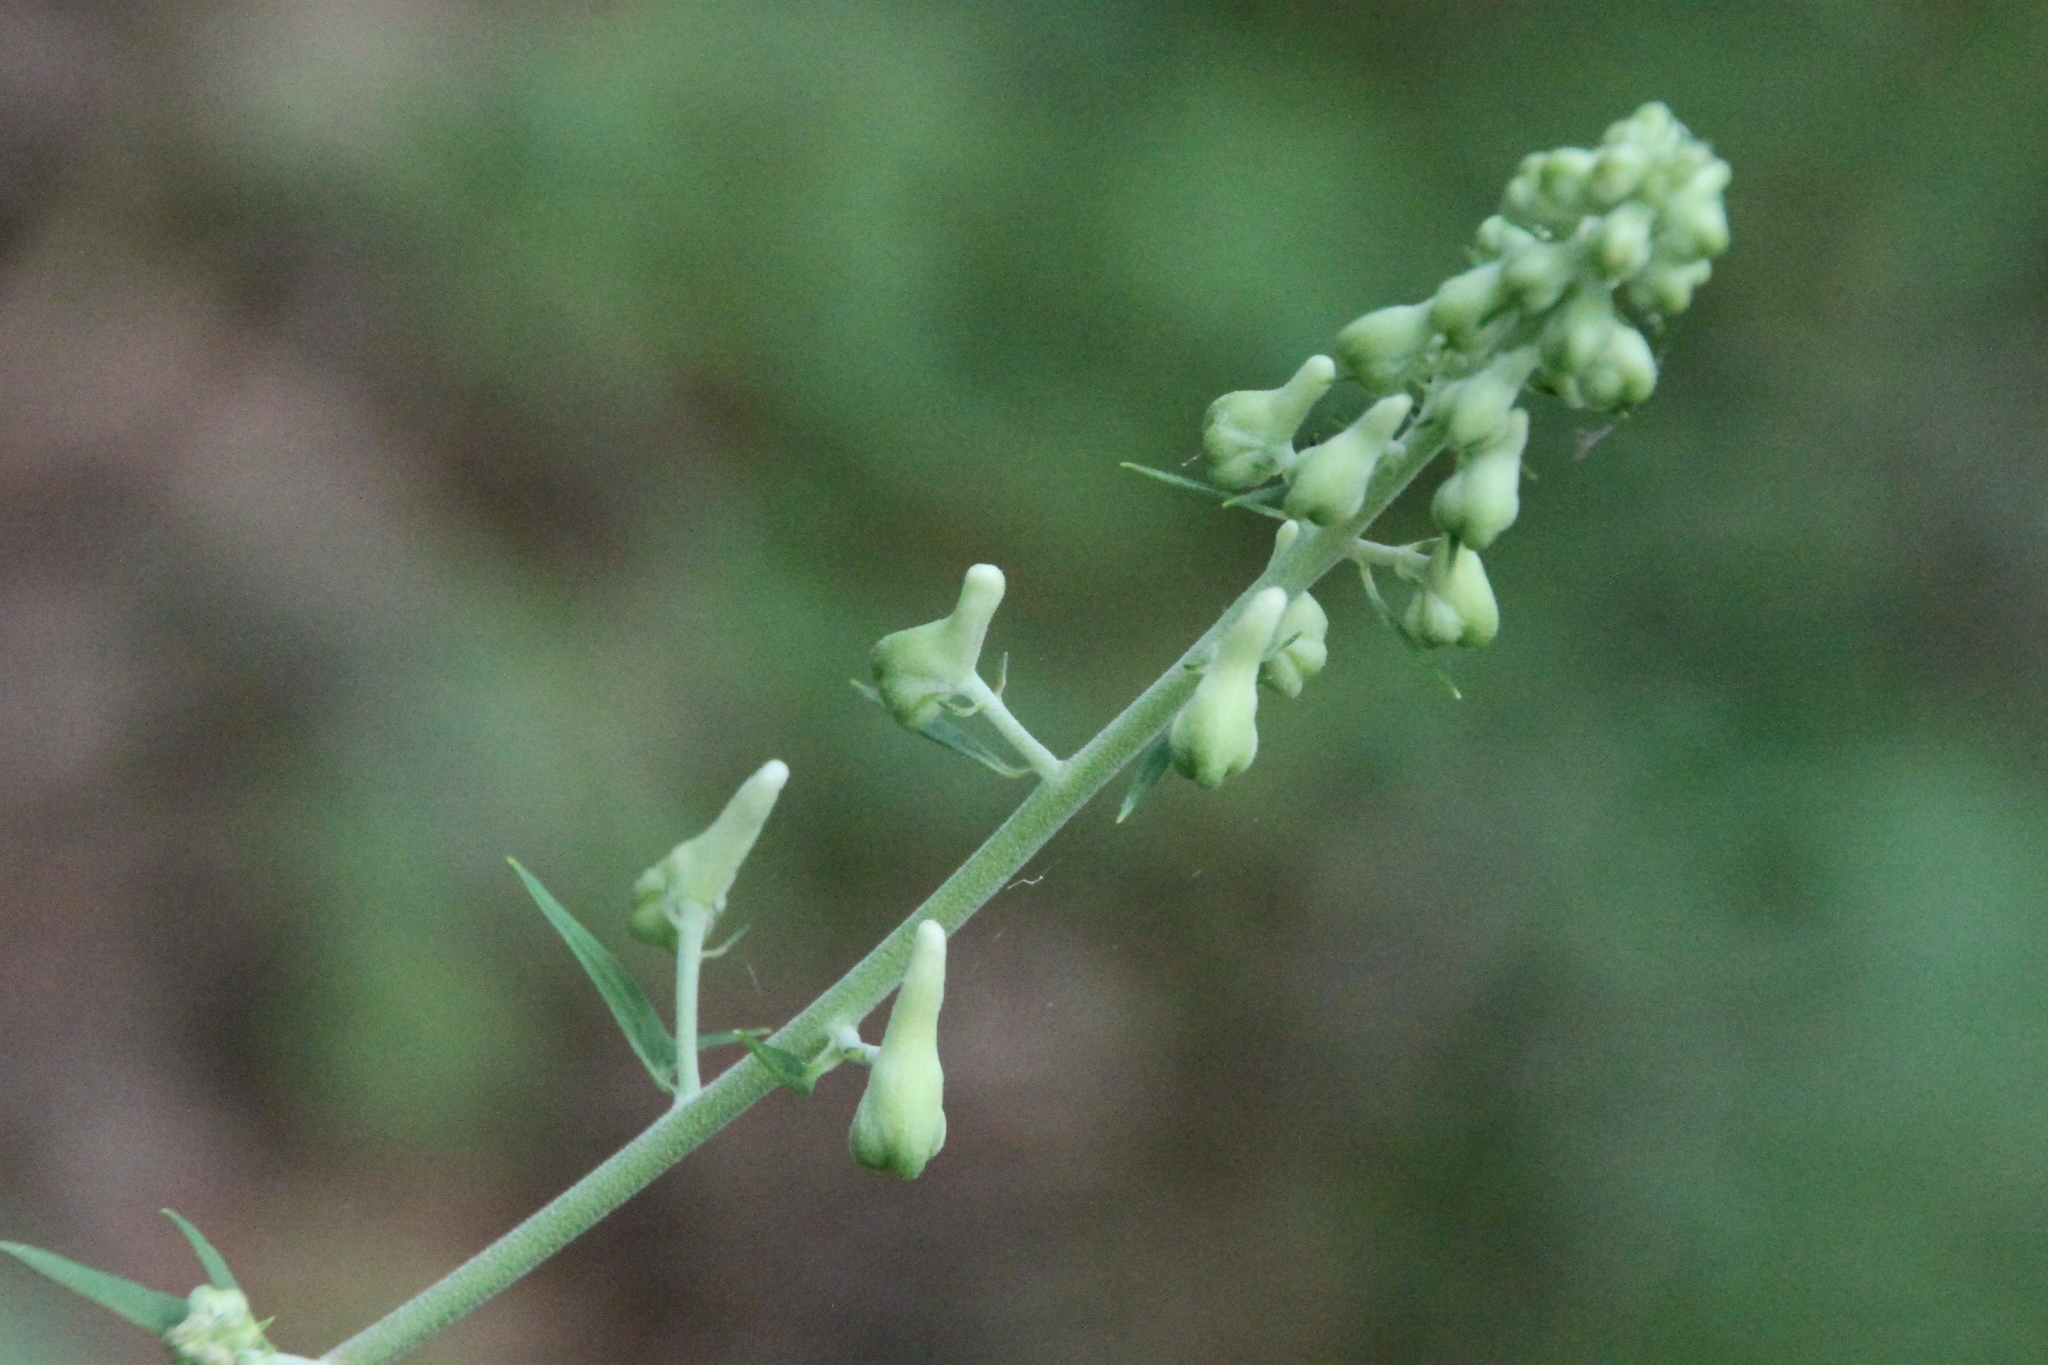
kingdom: Plantae
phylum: Tracheophyta
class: Magnoliopsida
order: Ranunculales
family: Ranunculaceae
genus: Aconitum
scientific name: Aconitum lasiostomum
